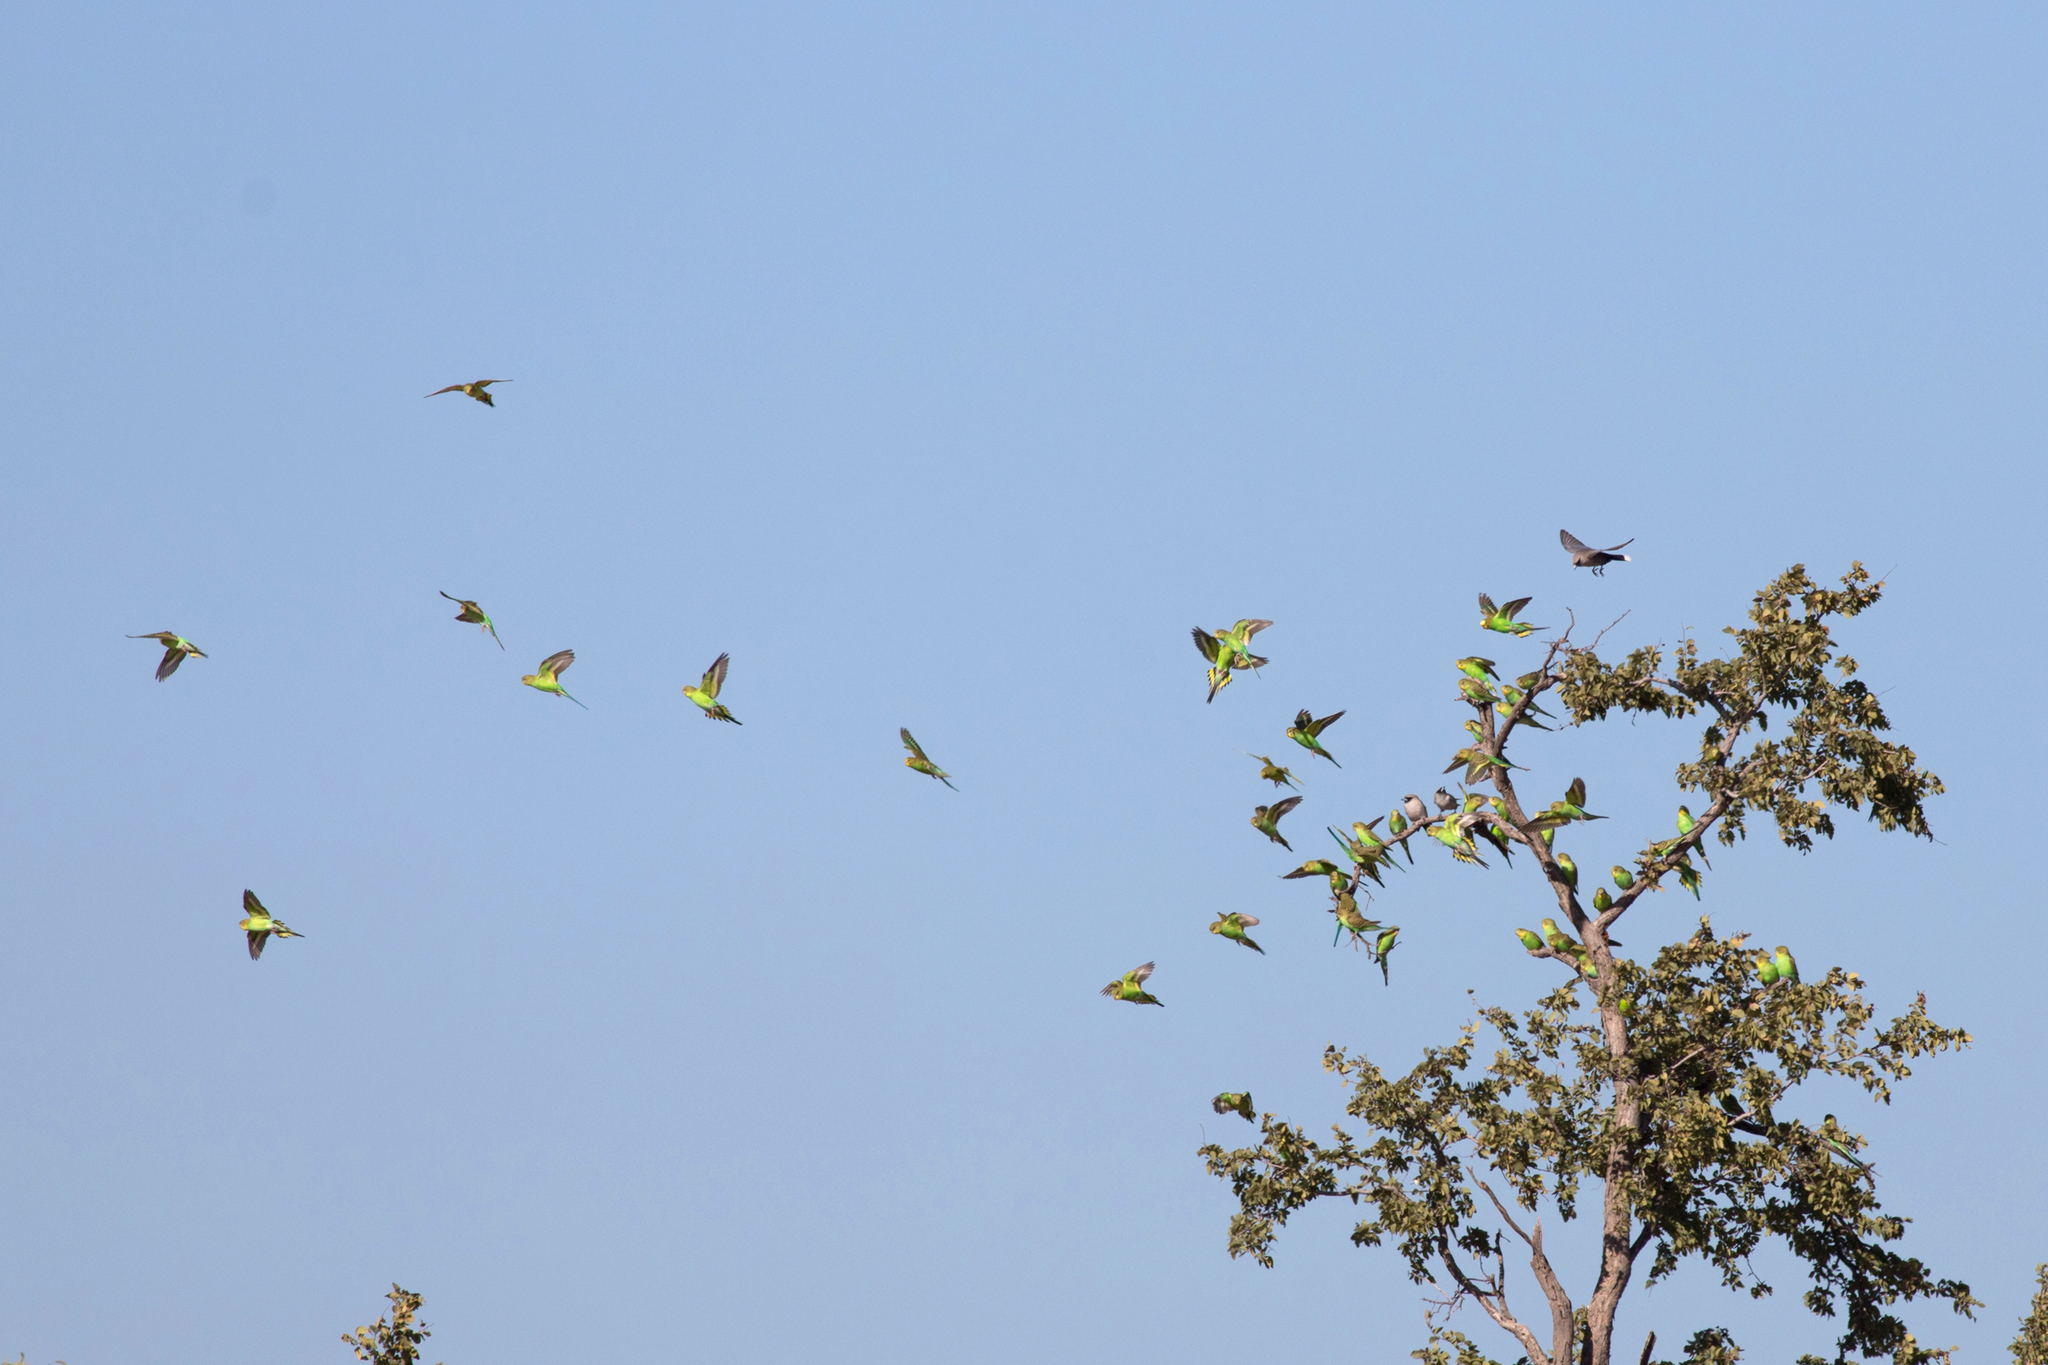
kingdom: Animalia
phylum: Chordata
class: Aves
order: Psittaciformes
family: Psittacidae
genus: Melopsittacus
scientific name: Melopsittacus undulatus
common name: Budgerigar
